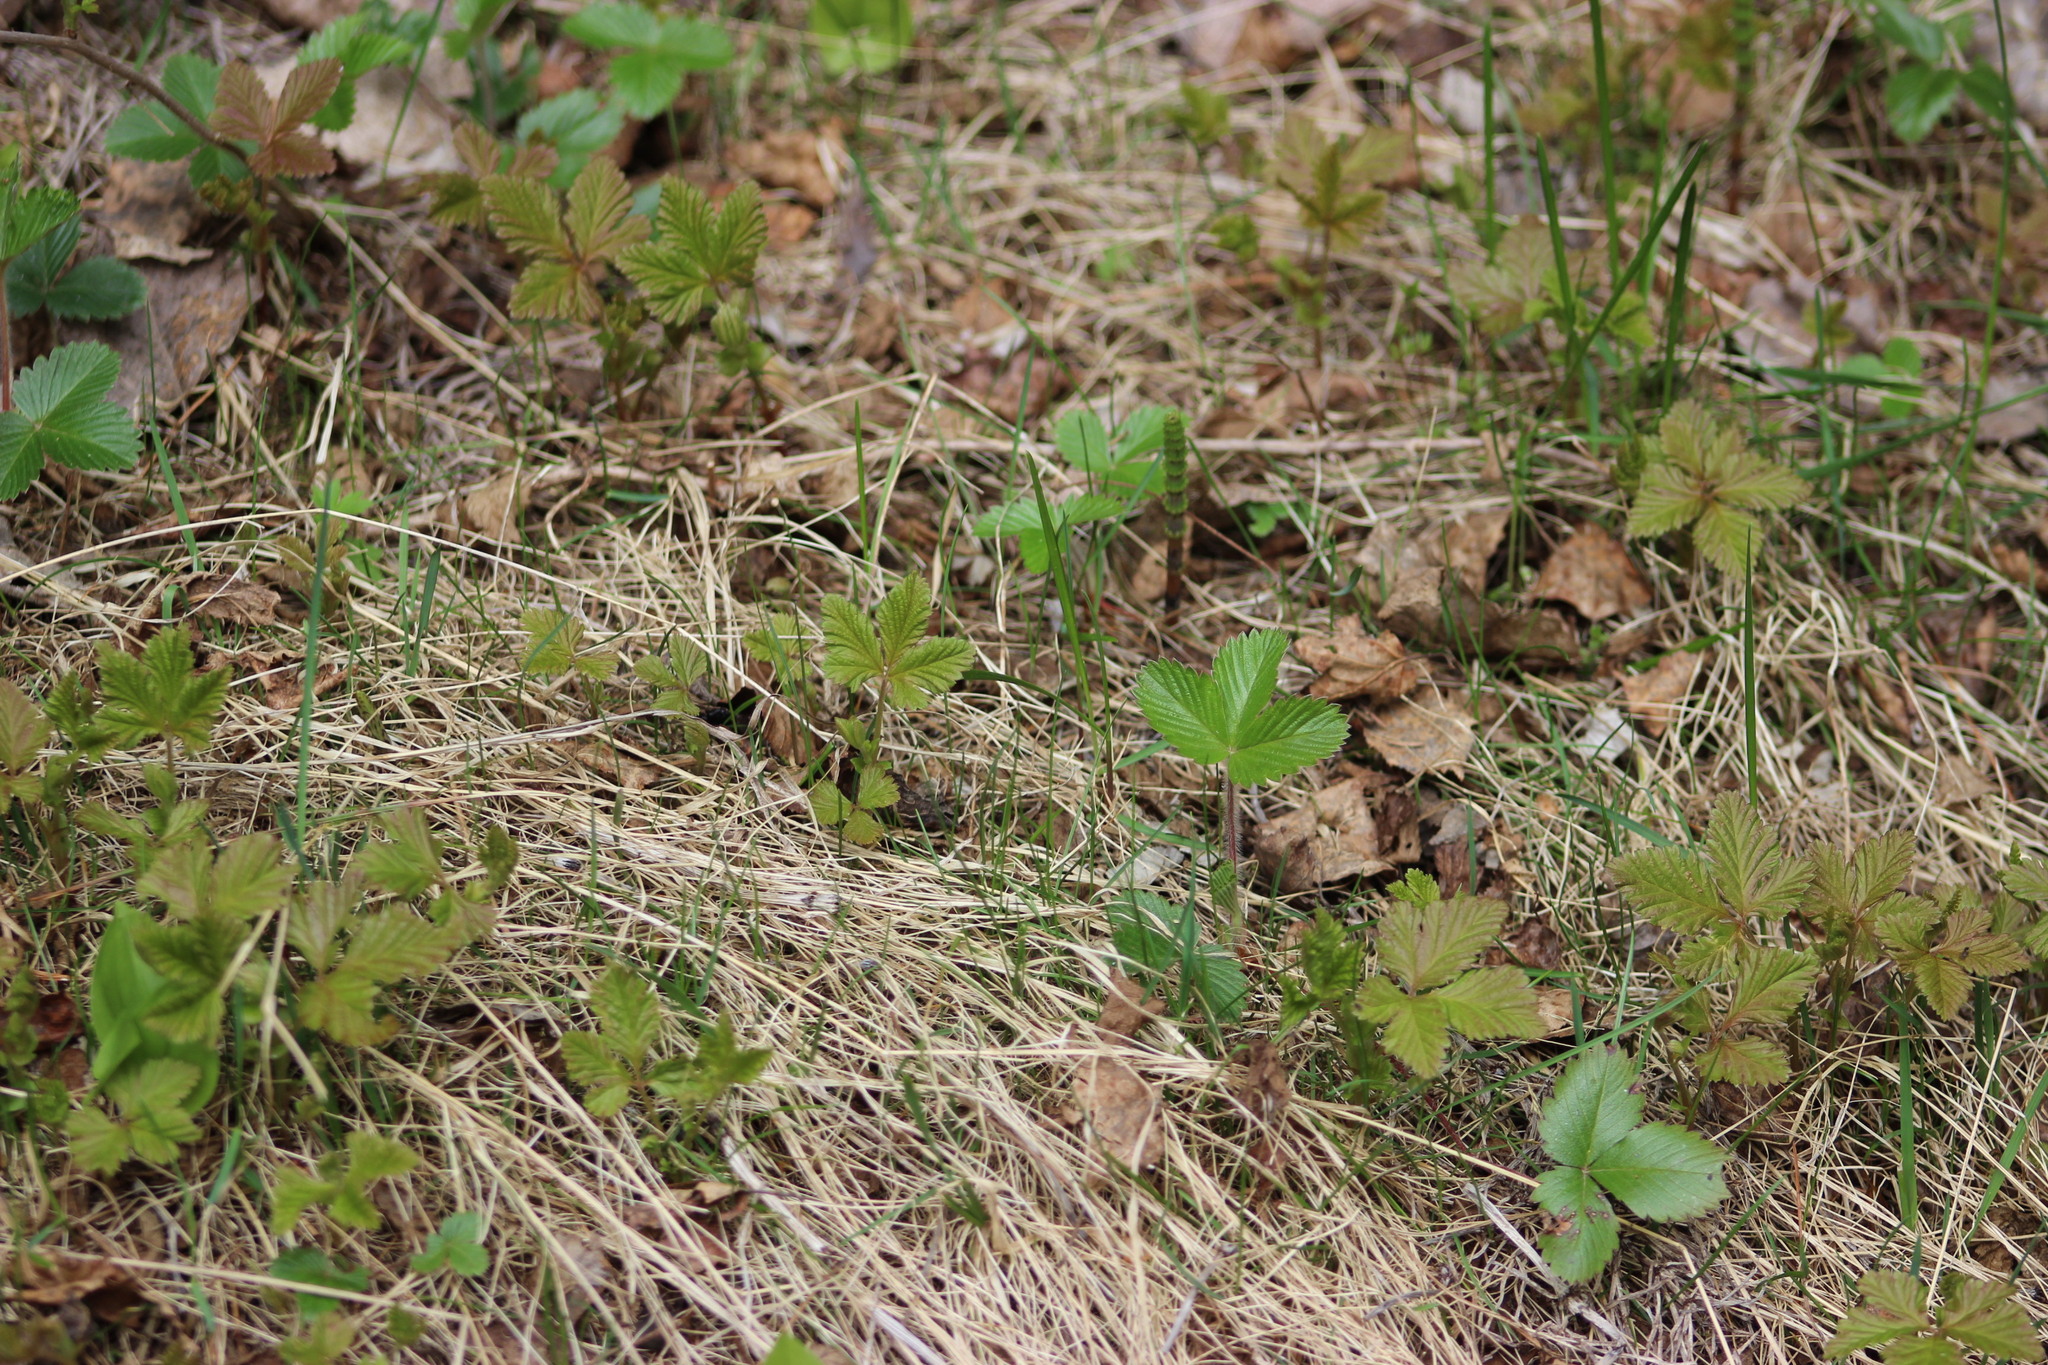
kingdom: Plantae
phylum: Tracheophyta
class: Magnoliopsida
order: Rosales
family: Rosaceae
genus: Rubus
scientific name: Rubus arcticus
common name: Arctic bramble
